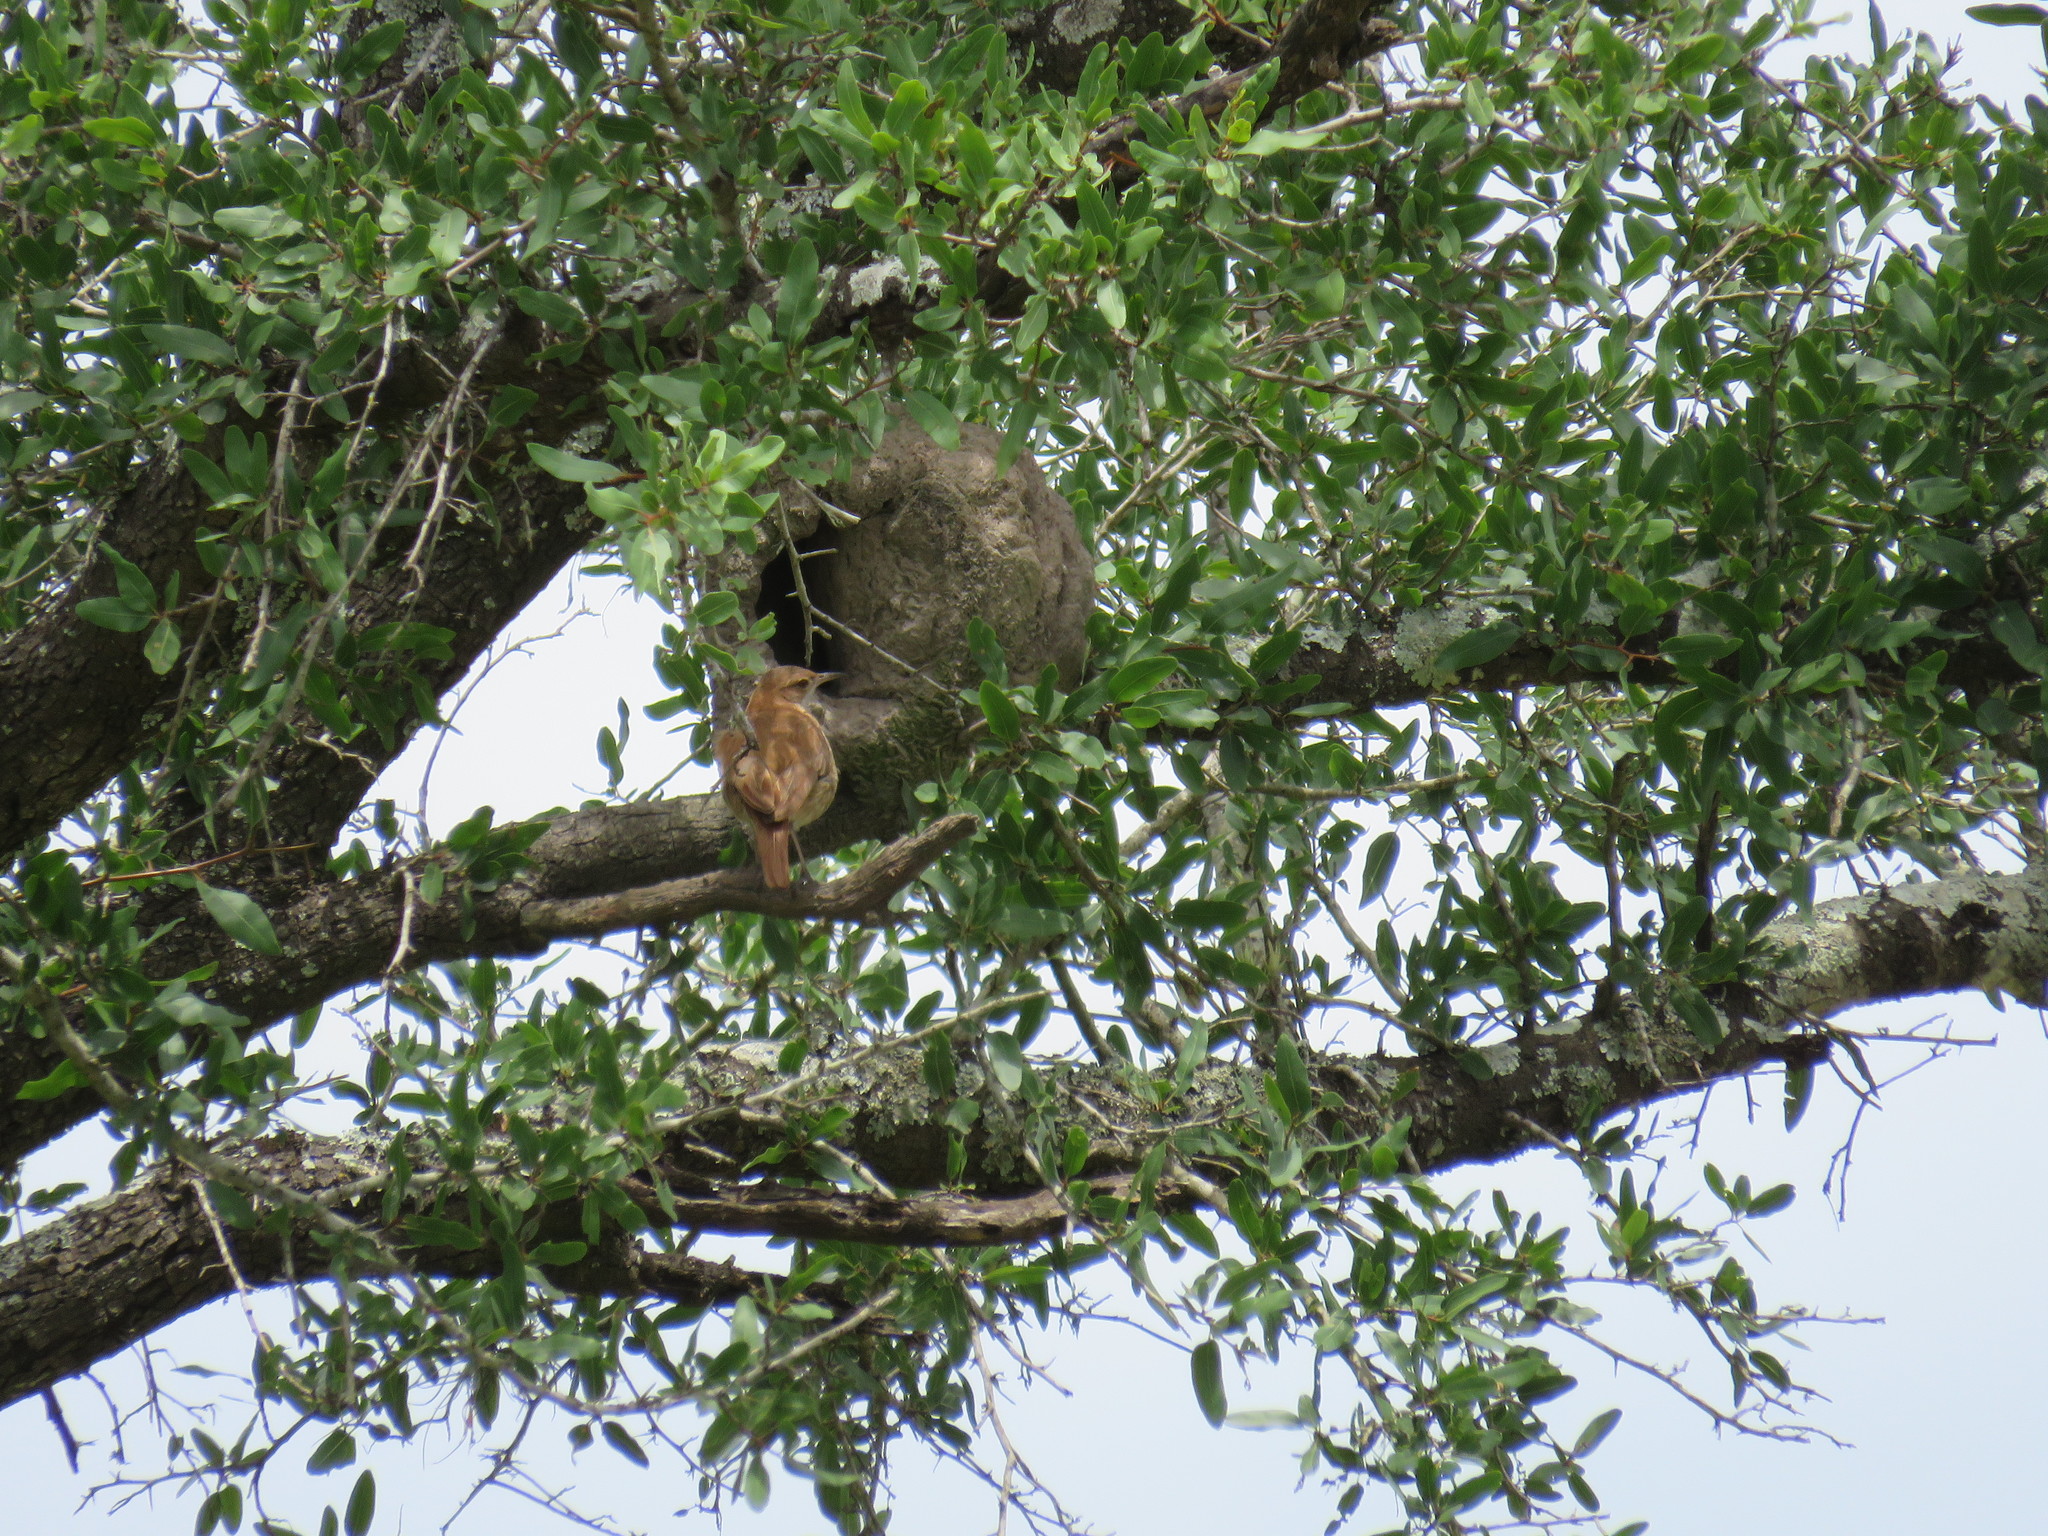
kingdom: Animalia
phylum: Chordata
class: Aves
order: Passeriformes
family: Furnariidae
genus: Furnarius
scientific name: Furnarius rufus
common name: Rufous hornero
